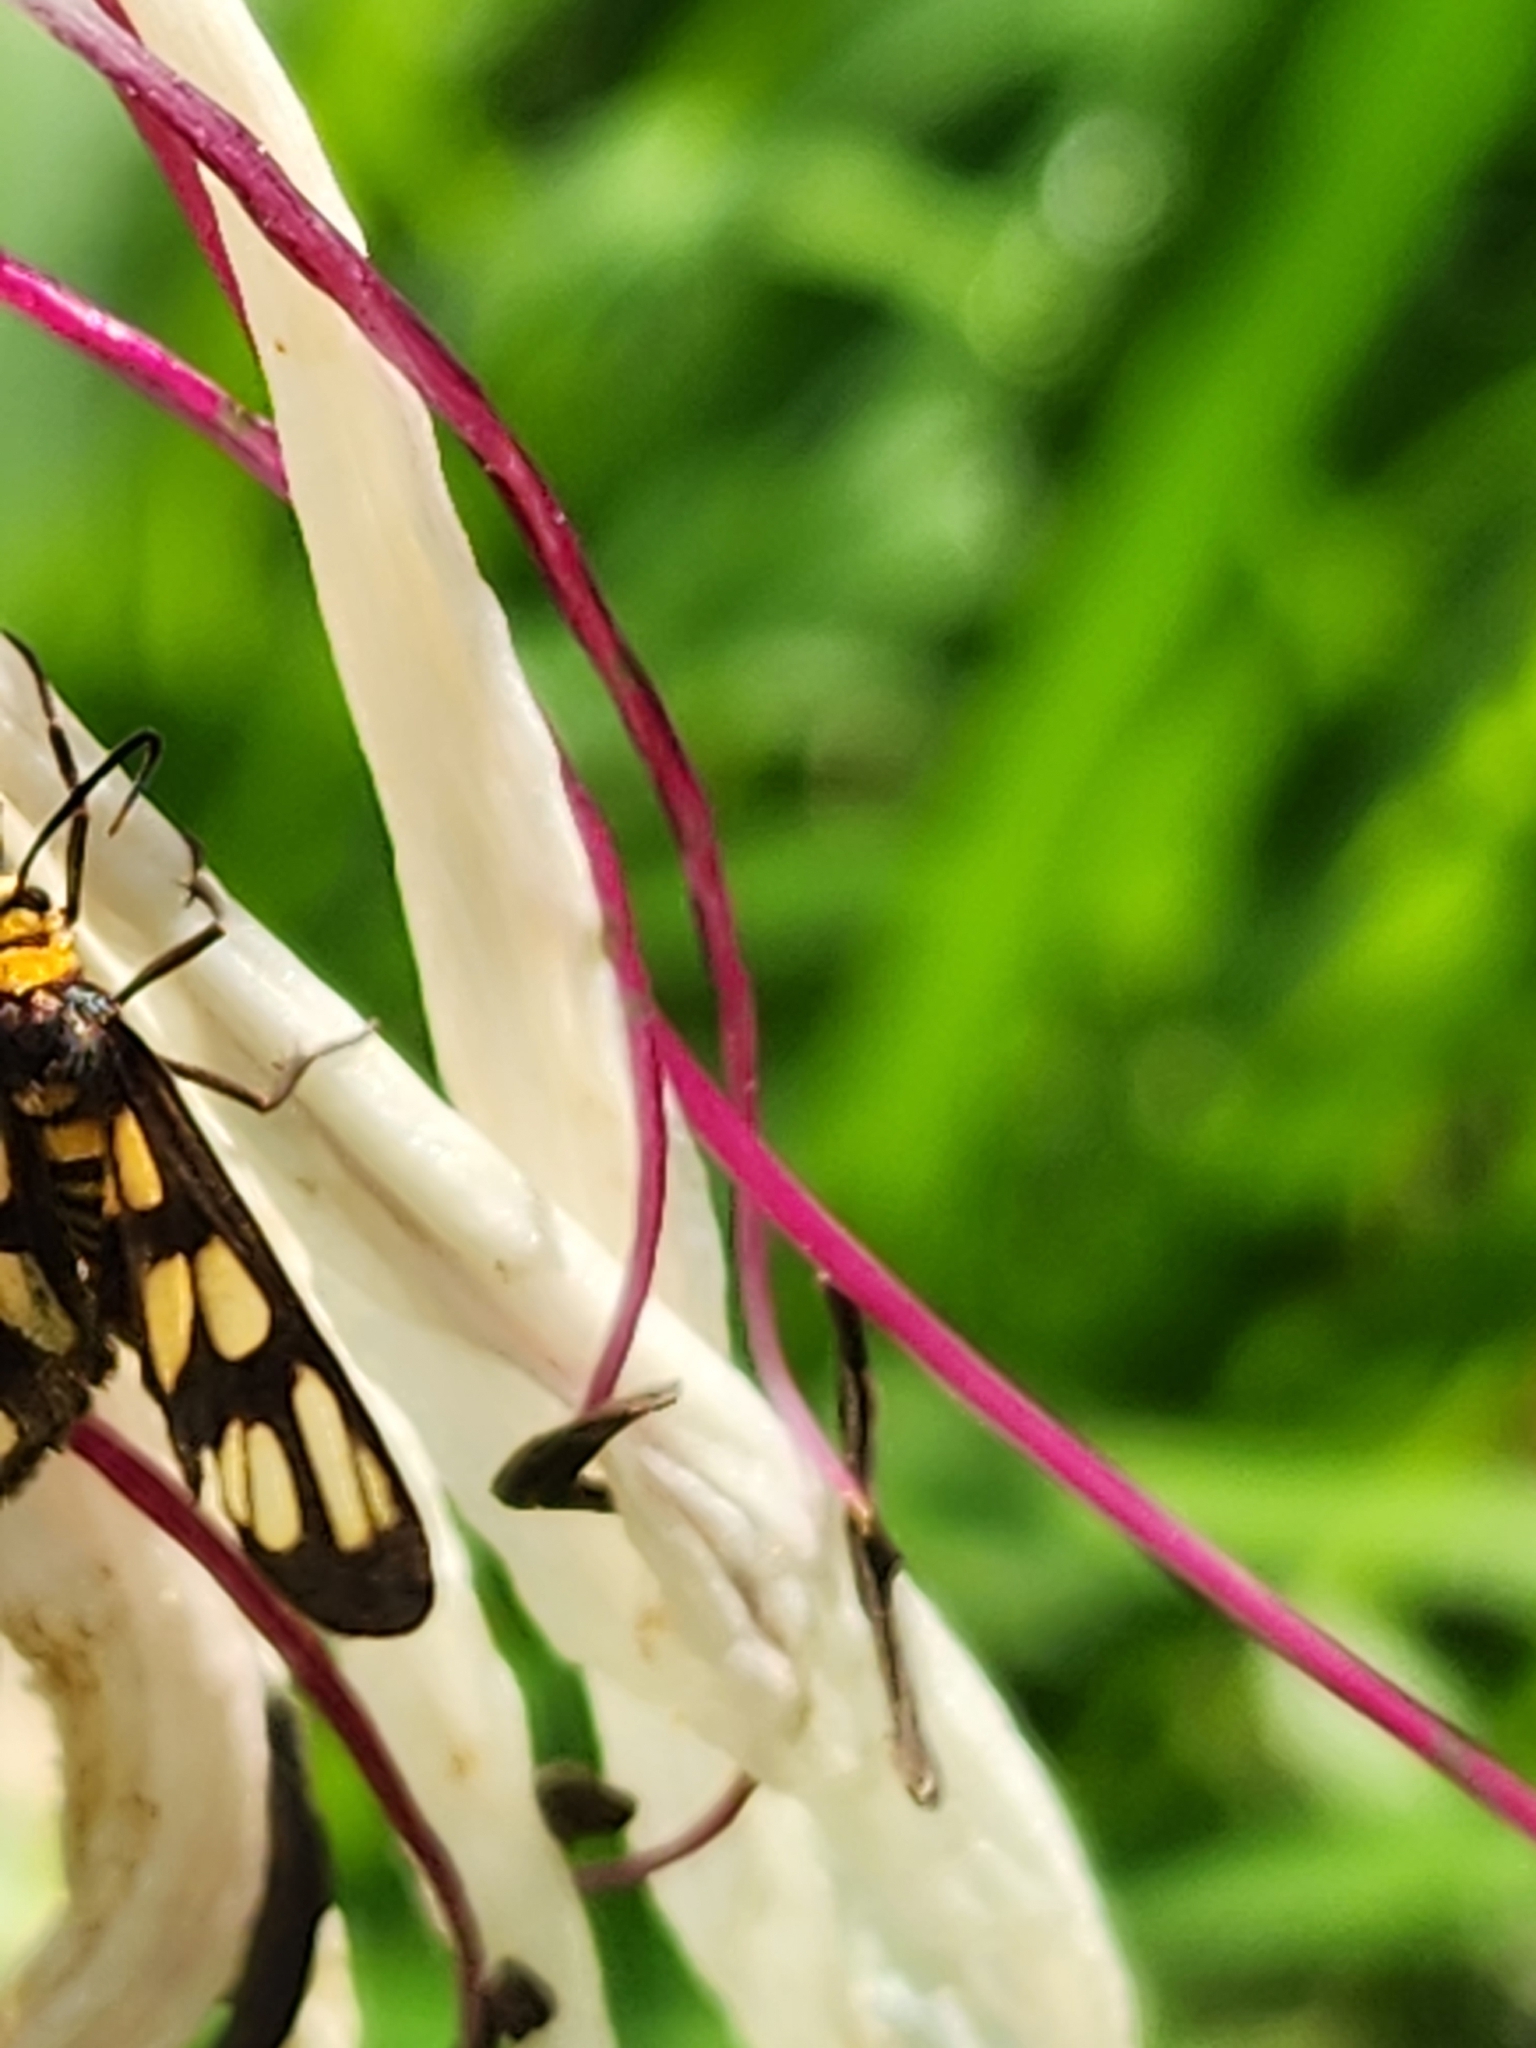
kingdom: Animalia
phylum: Arthropoda
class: Insecta
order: Lepidoptera
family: Erebidae
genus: Amata
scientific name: Amata aperta
